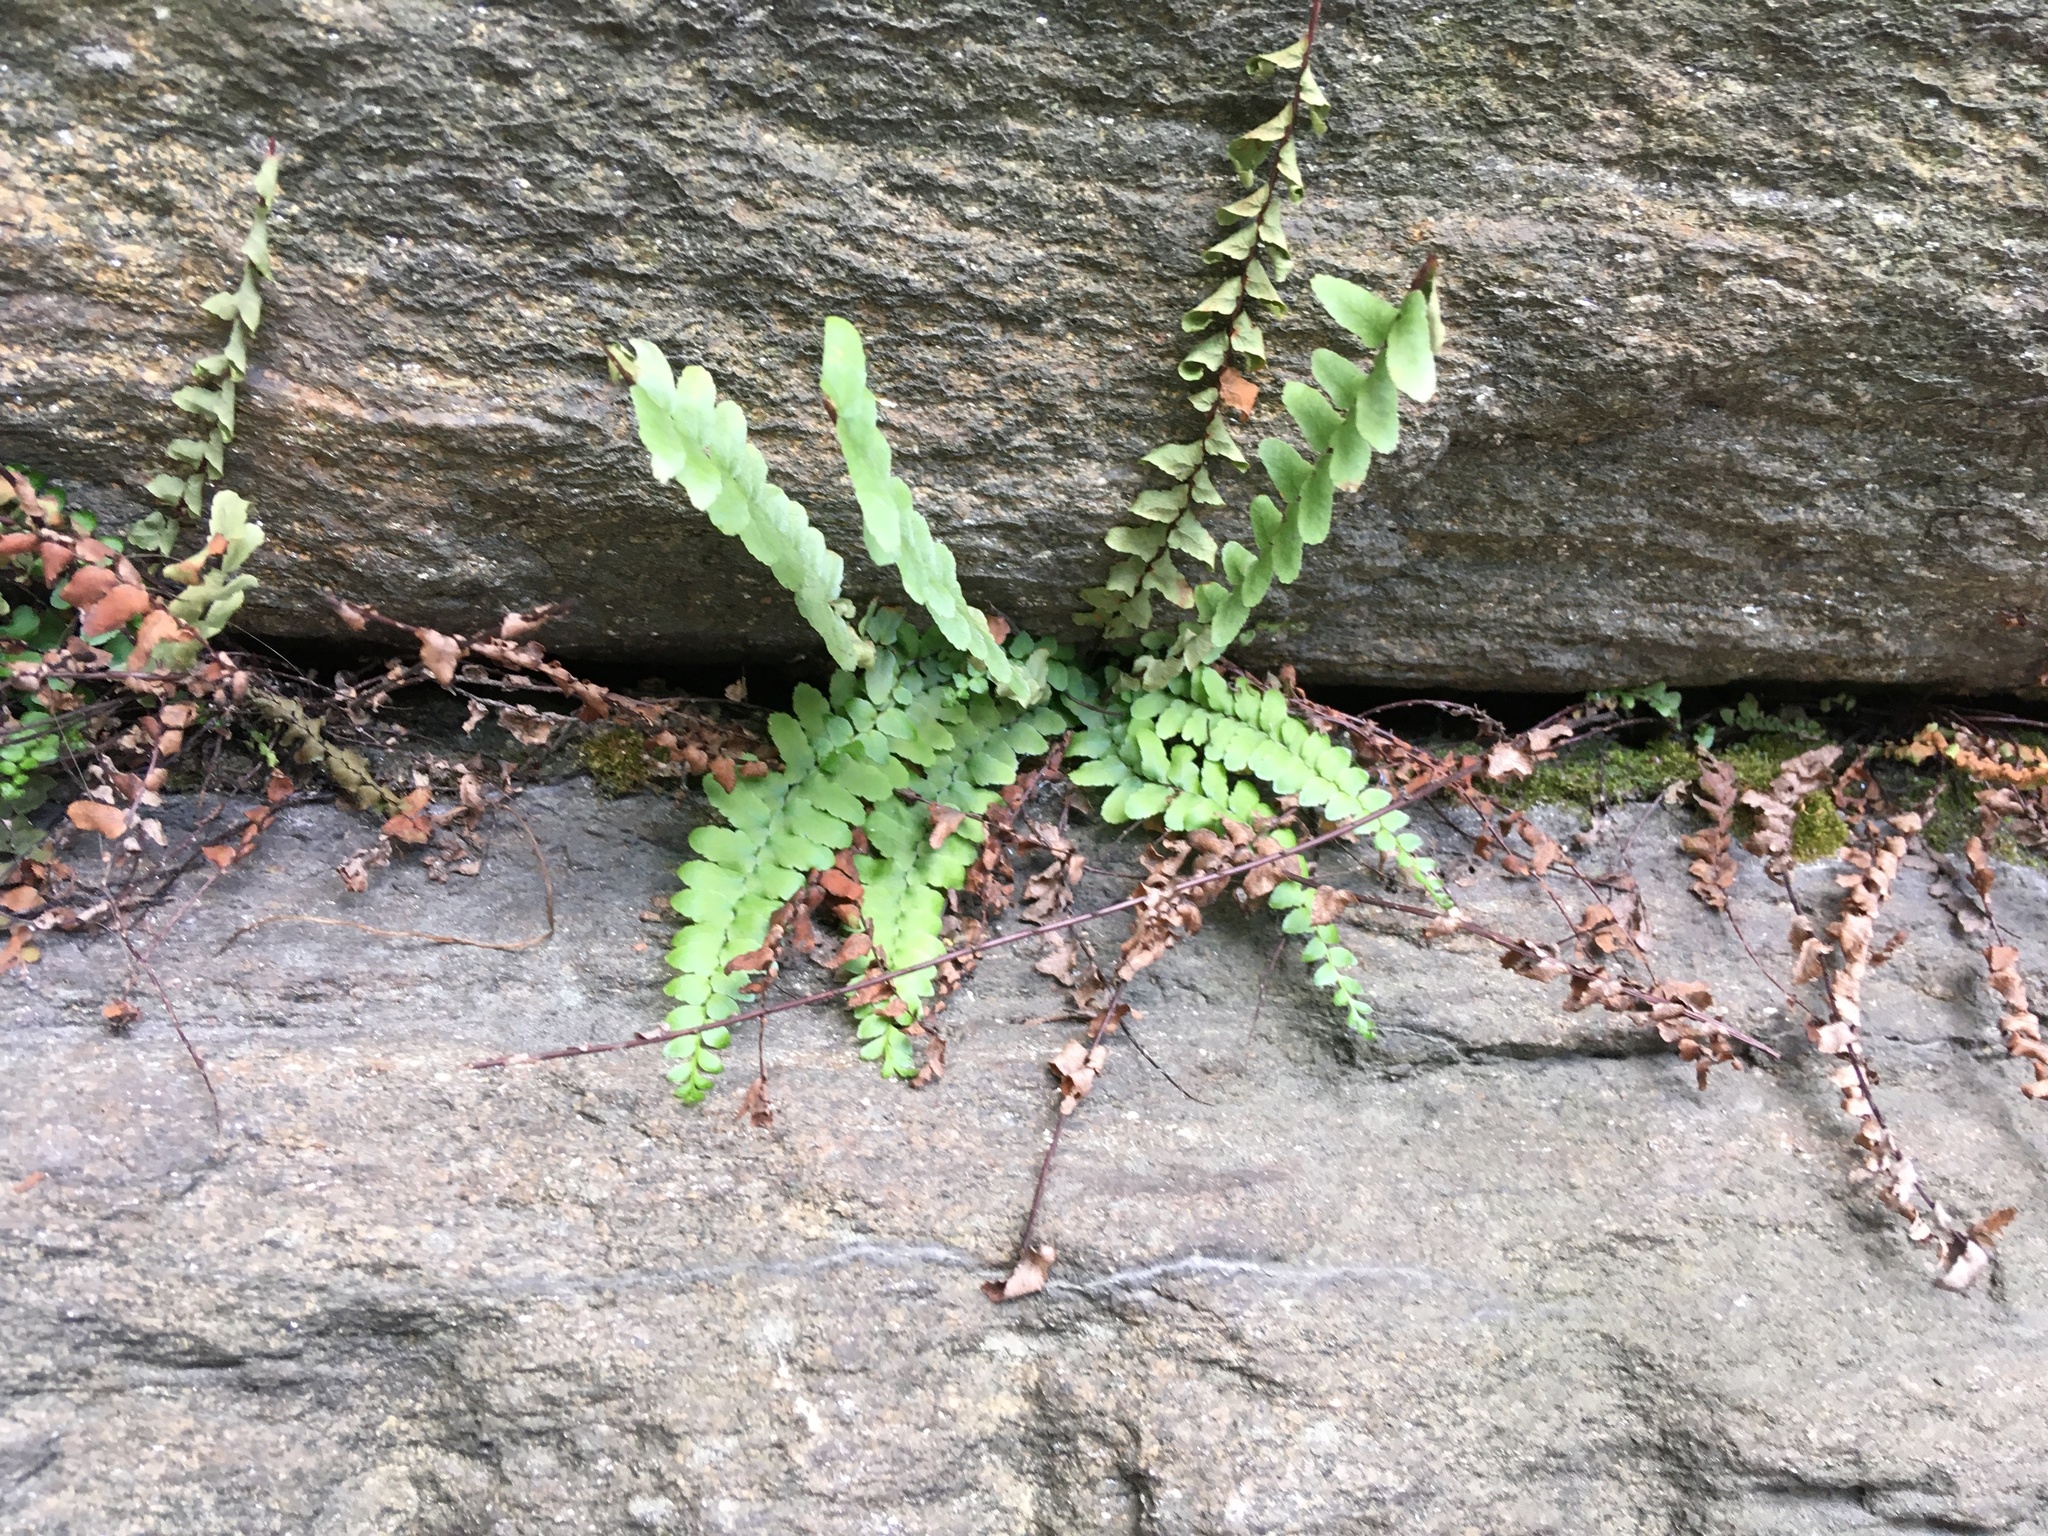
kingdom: Plantae
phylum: Tracheophyta
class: Polypodiopsida
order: Polypodiales
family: Aspleniaceae
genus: Asplenium
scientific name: Asplenium platyneuron
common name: Ebony spleenwort
